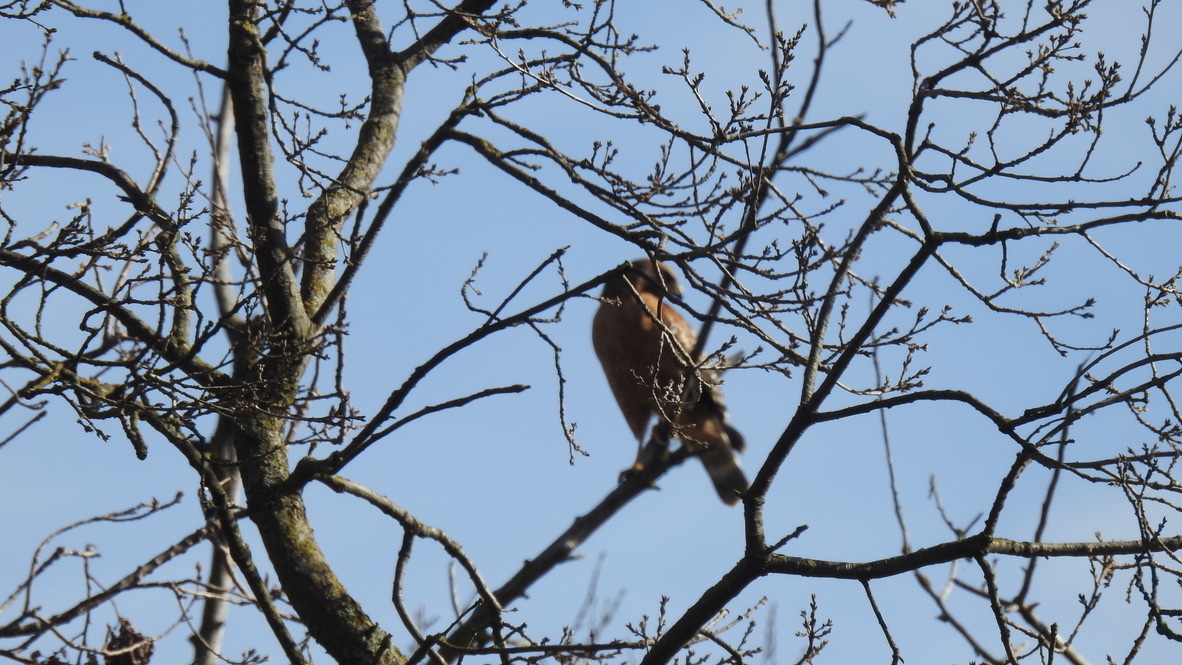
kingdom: Animalia
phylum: Chordata
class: Aves
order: Accipitriformes
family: Accipitridae
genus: Buteo
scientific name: Buteo lineatus
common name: Red-shouldered hawk
